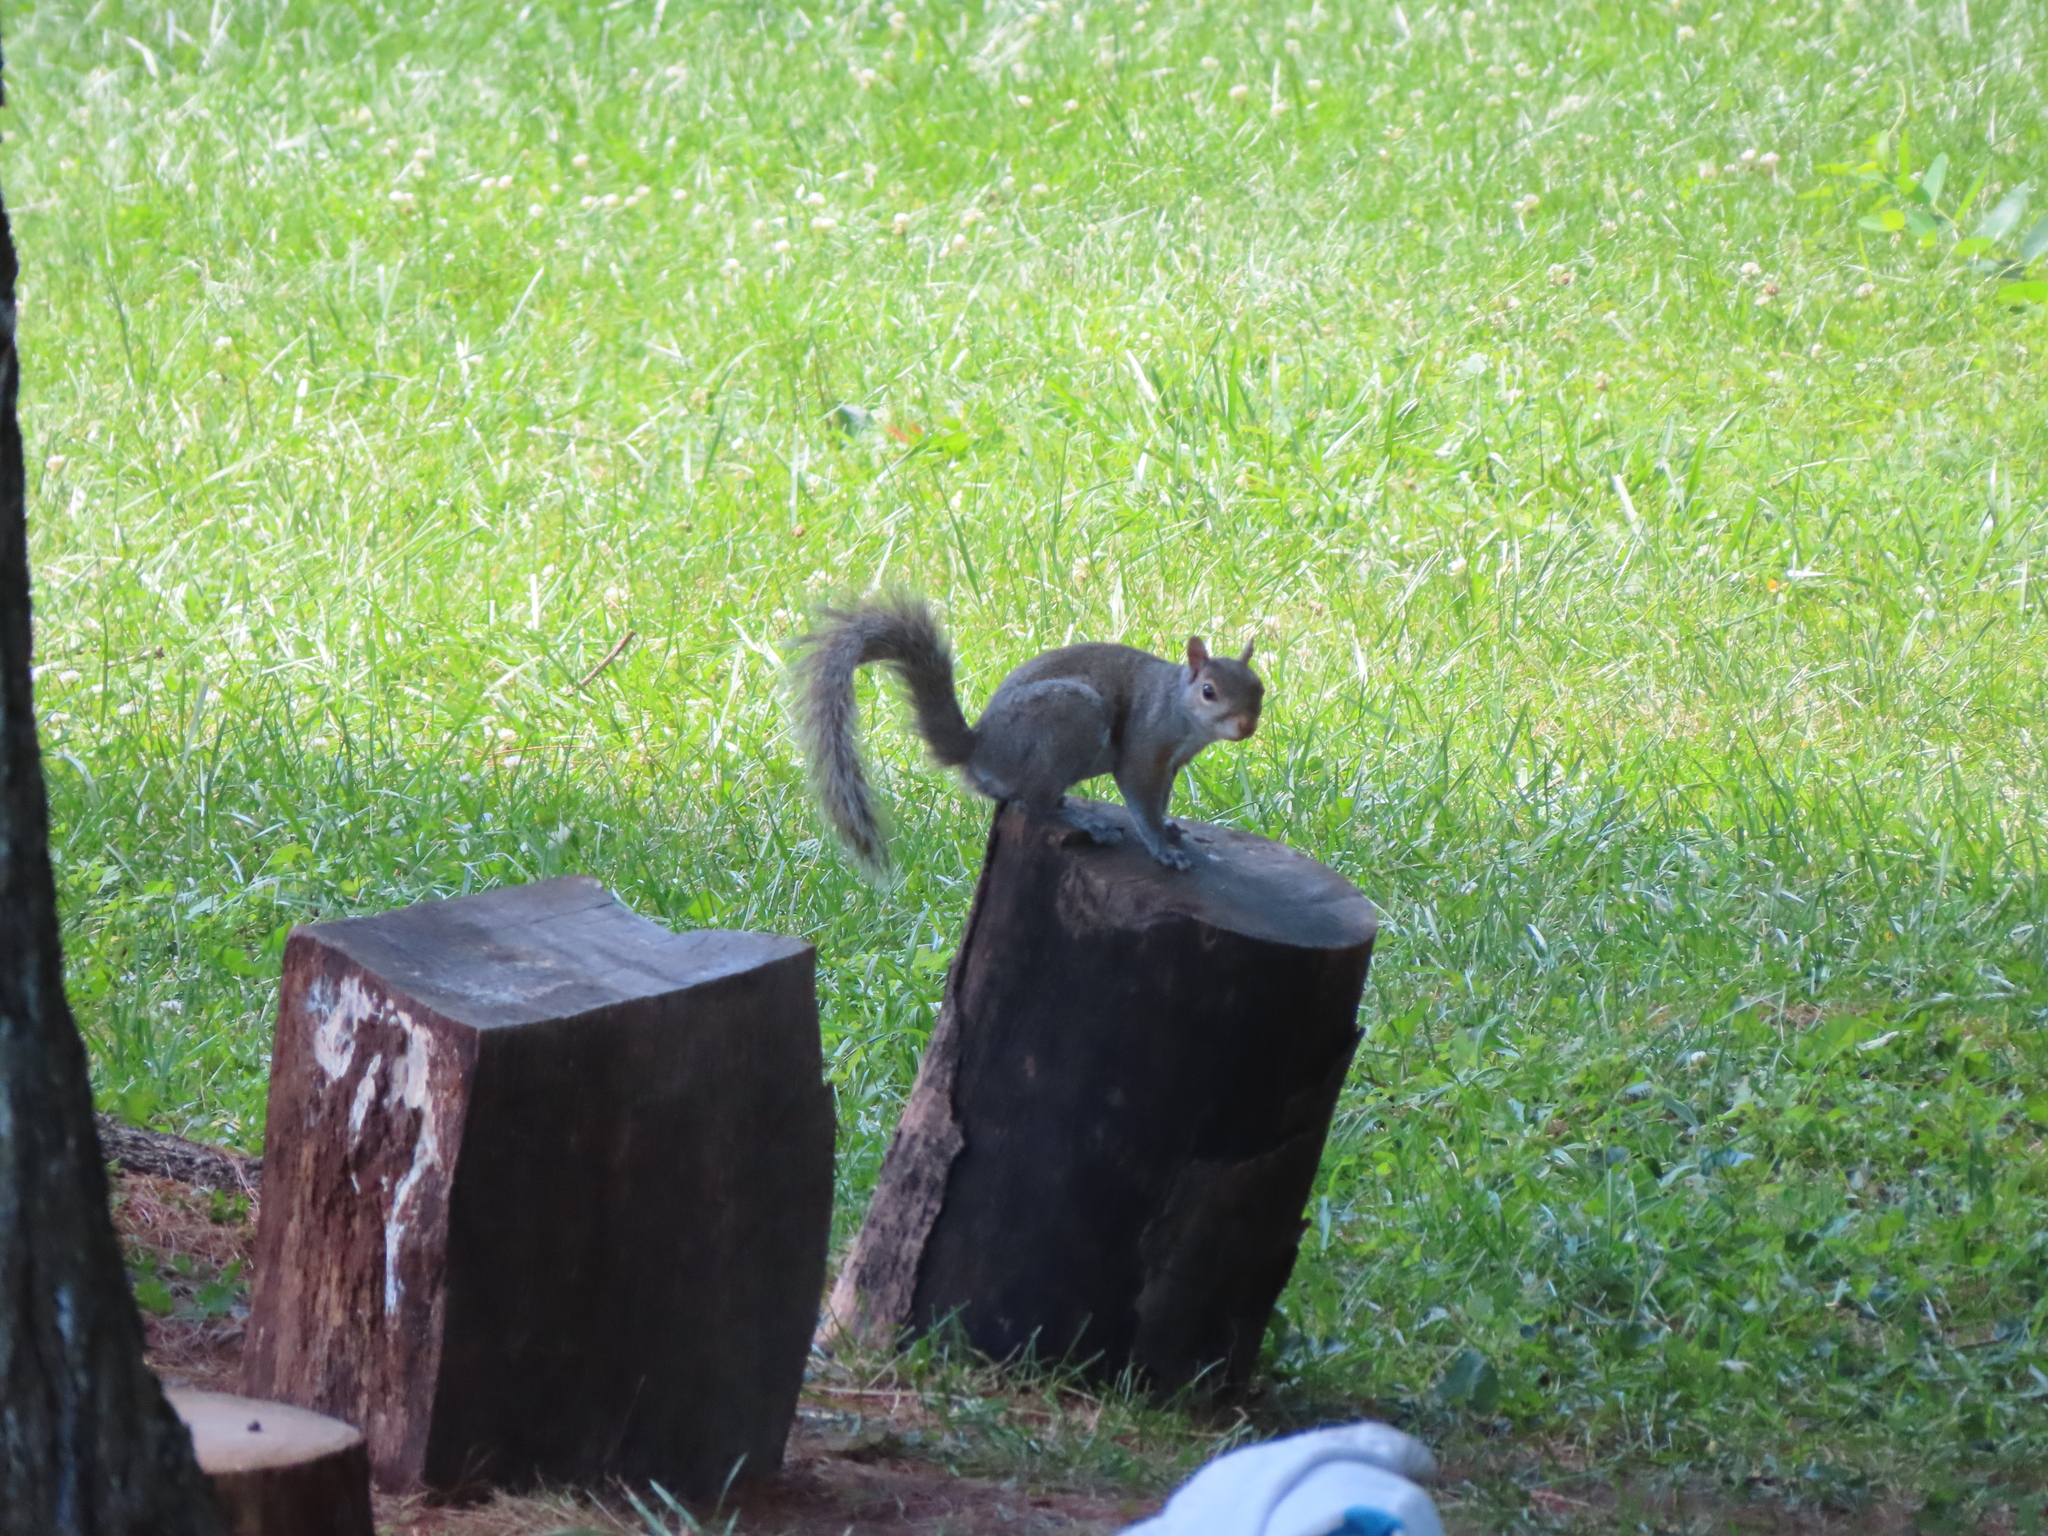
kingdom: Animalia
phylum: Chordata
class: Mammalia
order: Rodentia
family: Sciuridae
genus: Sciurus
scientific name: Sciurus carolinensis
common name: Eastern gray squirrel
